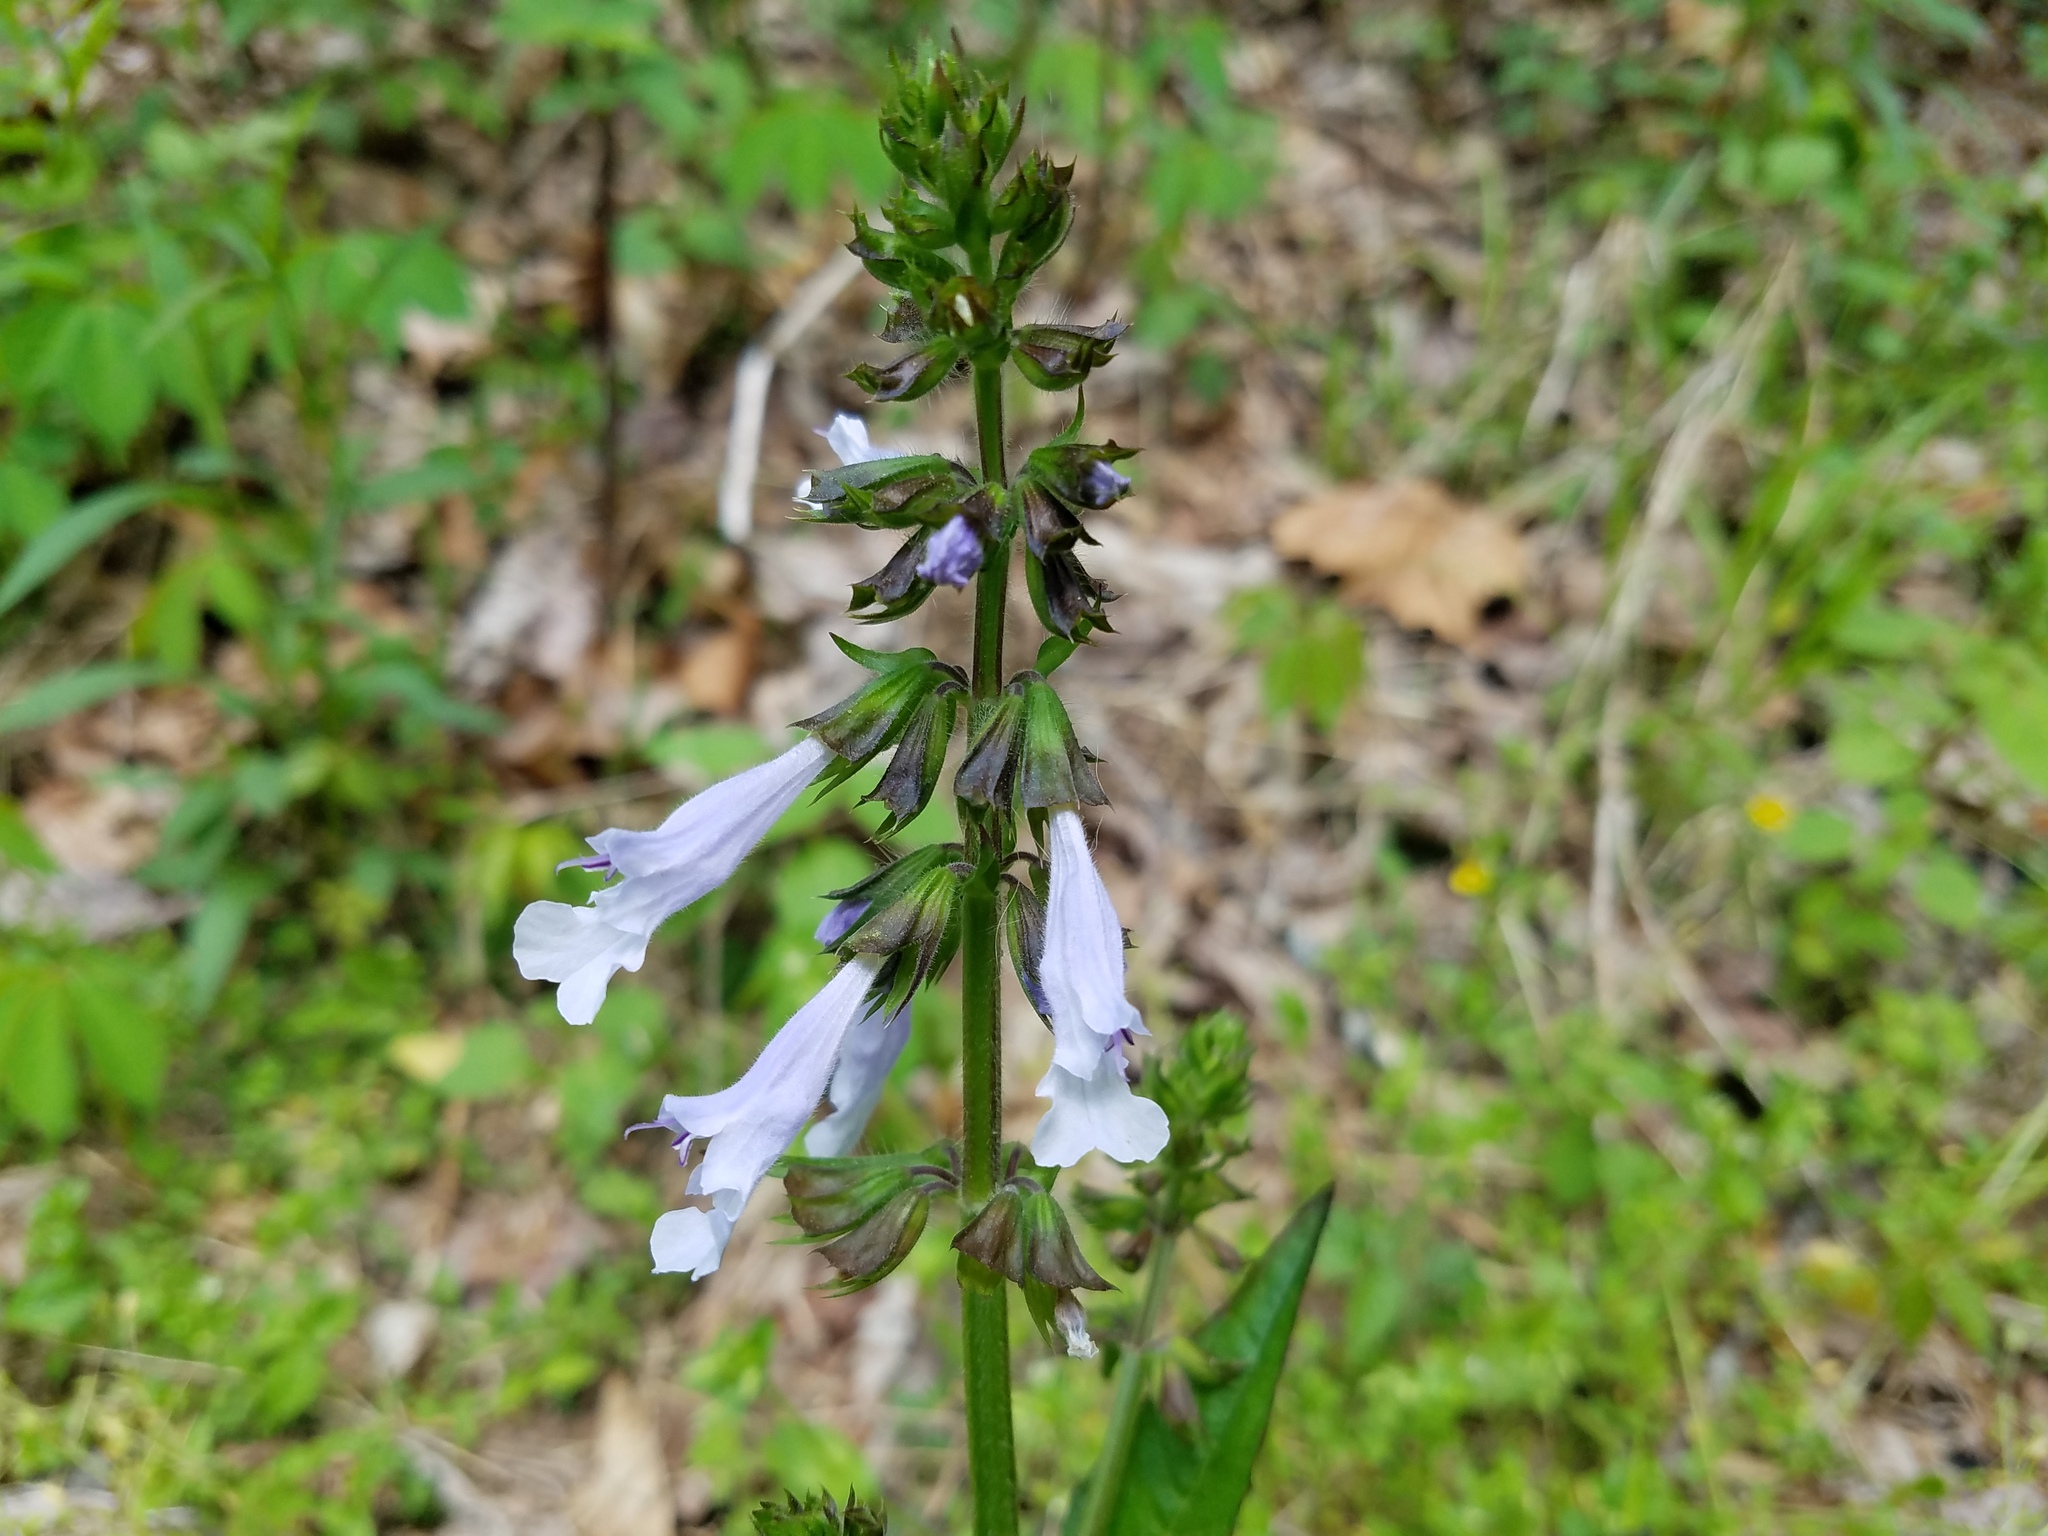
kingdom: Plantae
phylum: Tracheophyta
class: Magnoliopsida
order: Lamiales
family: Lamiaceae
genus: Salvia
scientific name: Salvia lyrata
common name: Cancerweed
